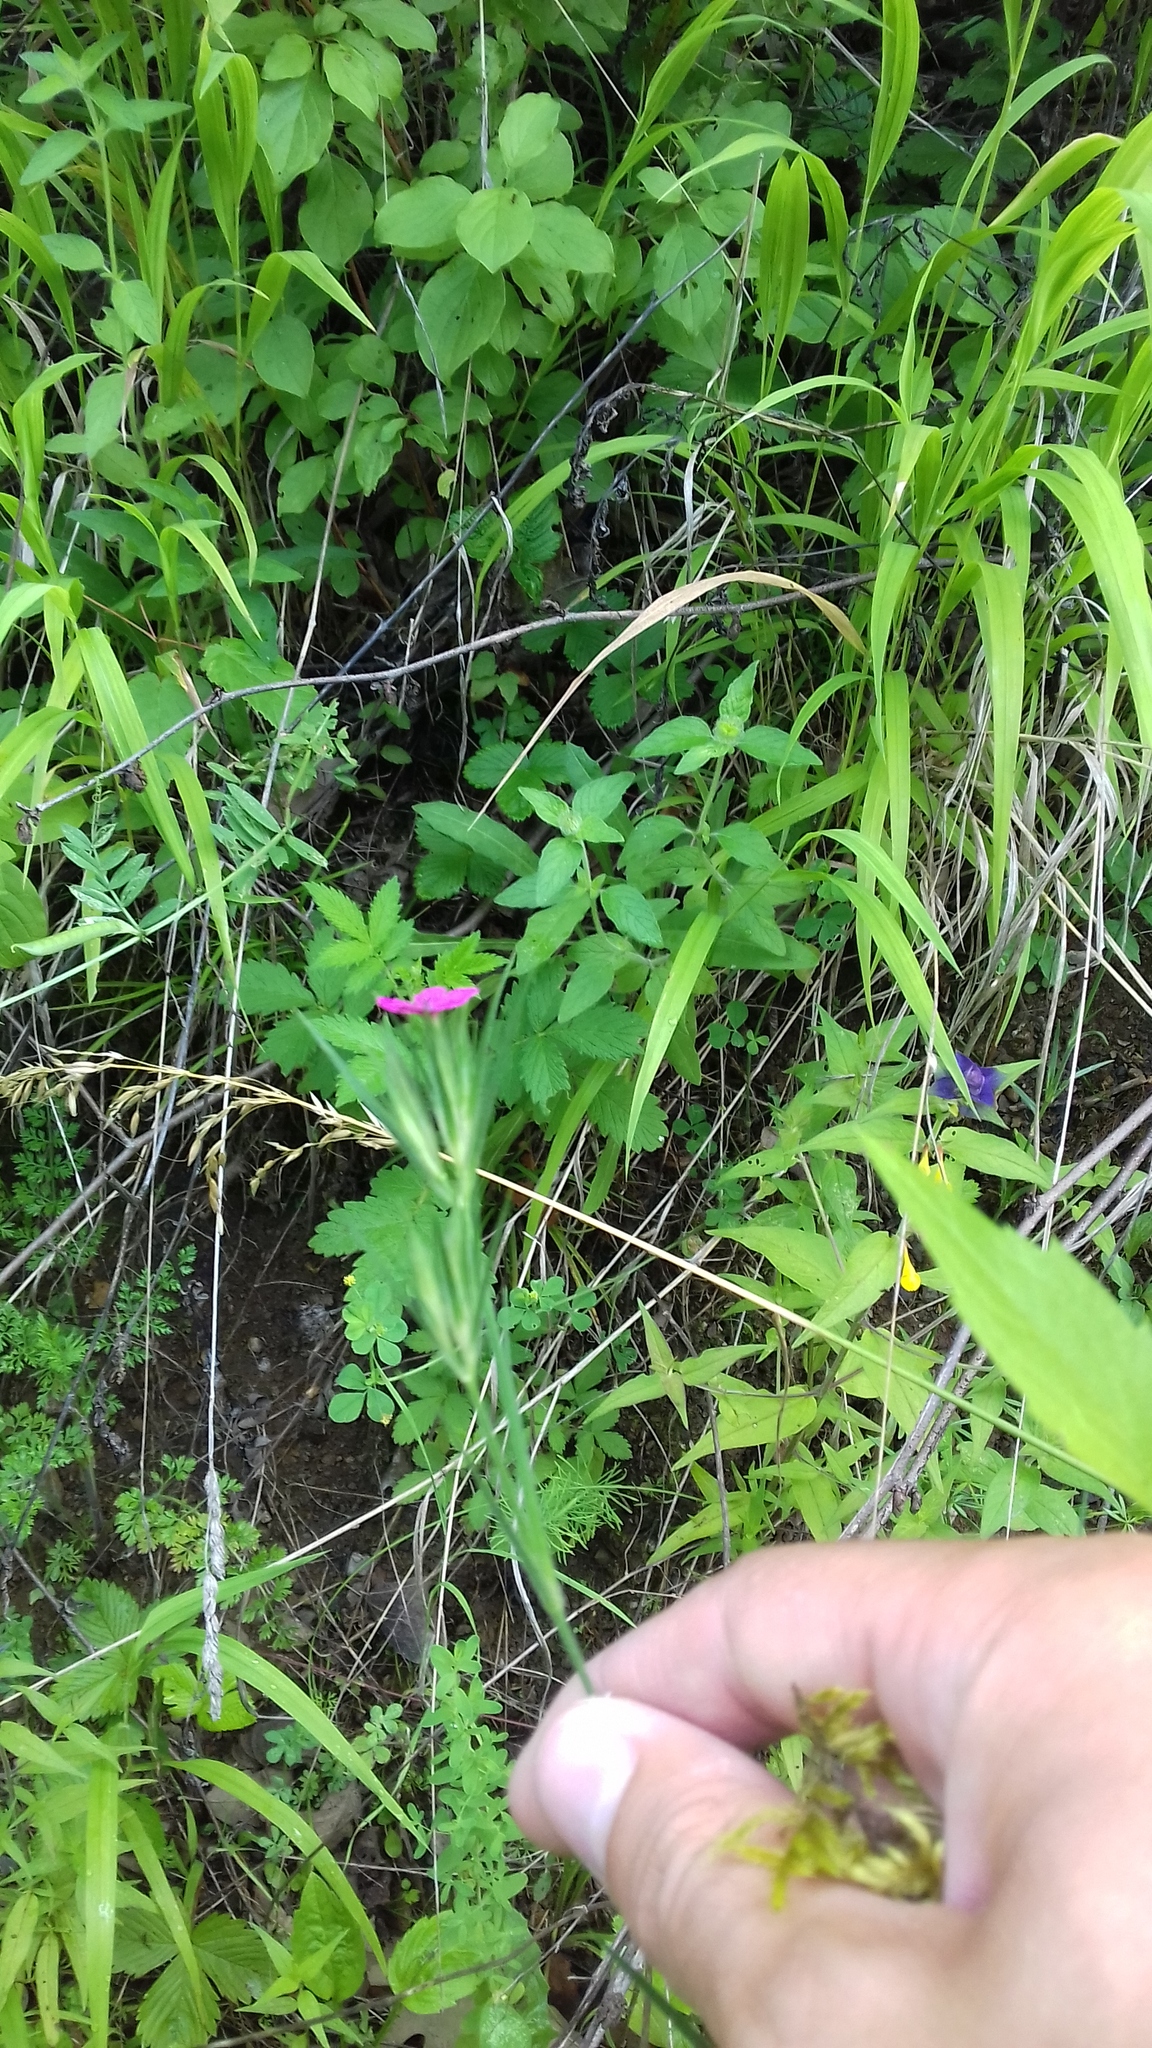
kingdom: Plantae
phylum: Tracheophyta
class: Magnoliopsida
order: Caryophyllales
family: Caryophyllaceae
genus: Dianthus
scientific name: Dianthus armeria
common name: Deptford pink
